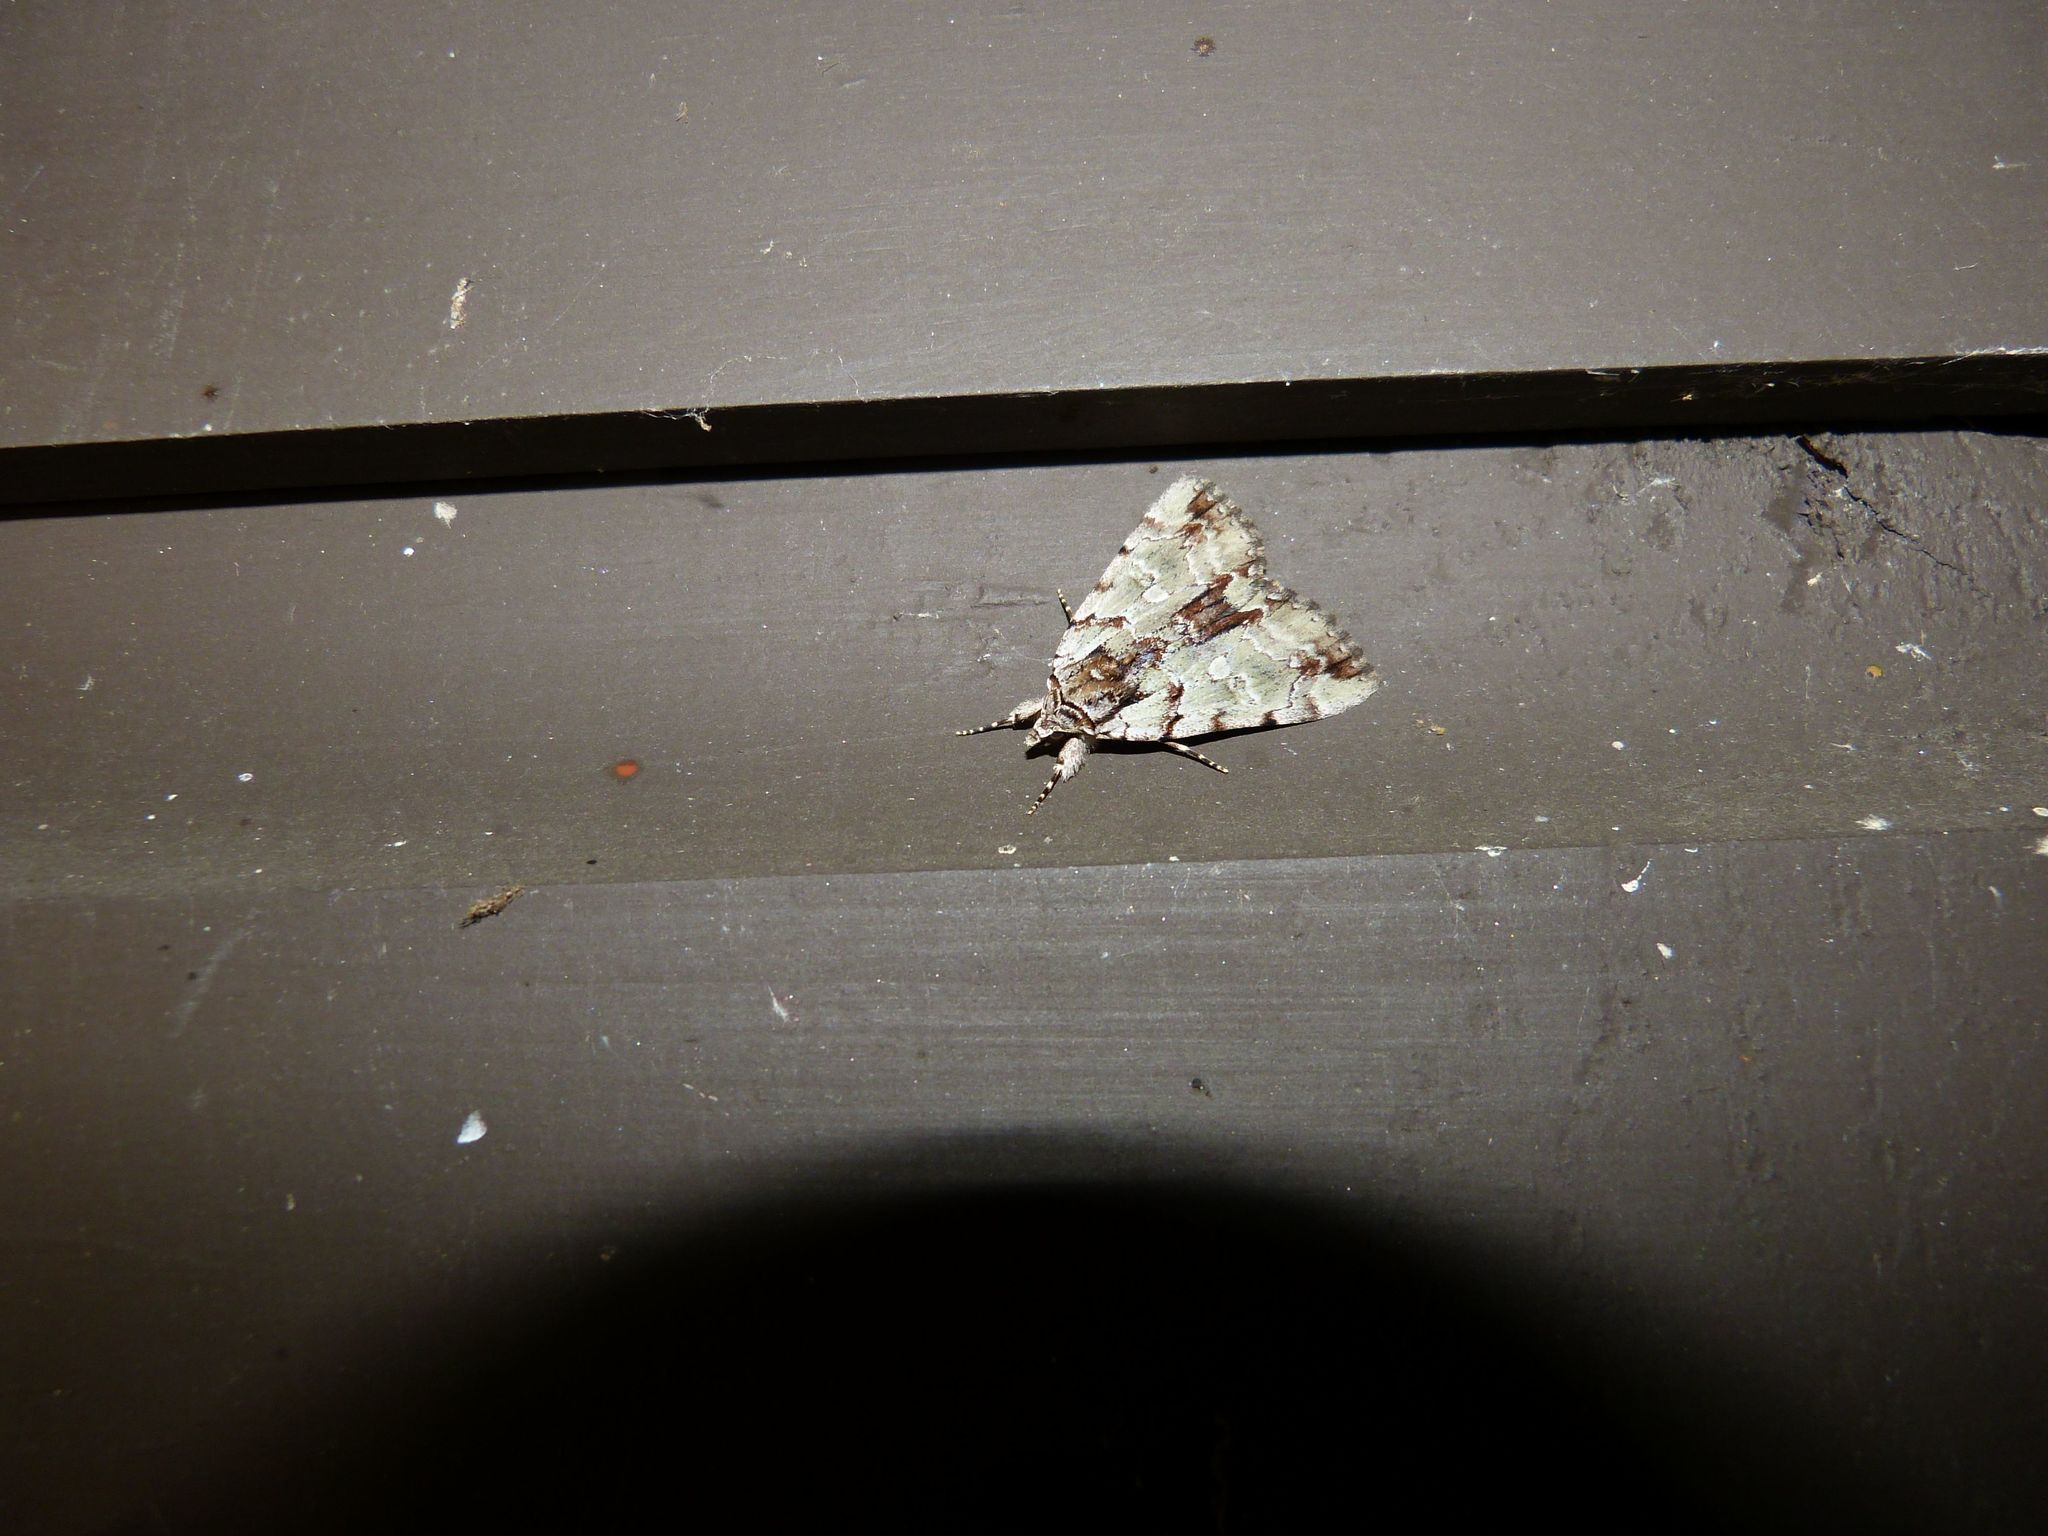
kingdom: Animalia
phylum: Arthropoda
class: Insecta
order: Lepidoptera
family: Erebidae
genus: Catocala
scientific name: Catocala praeclara
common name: Praeclara underwing
